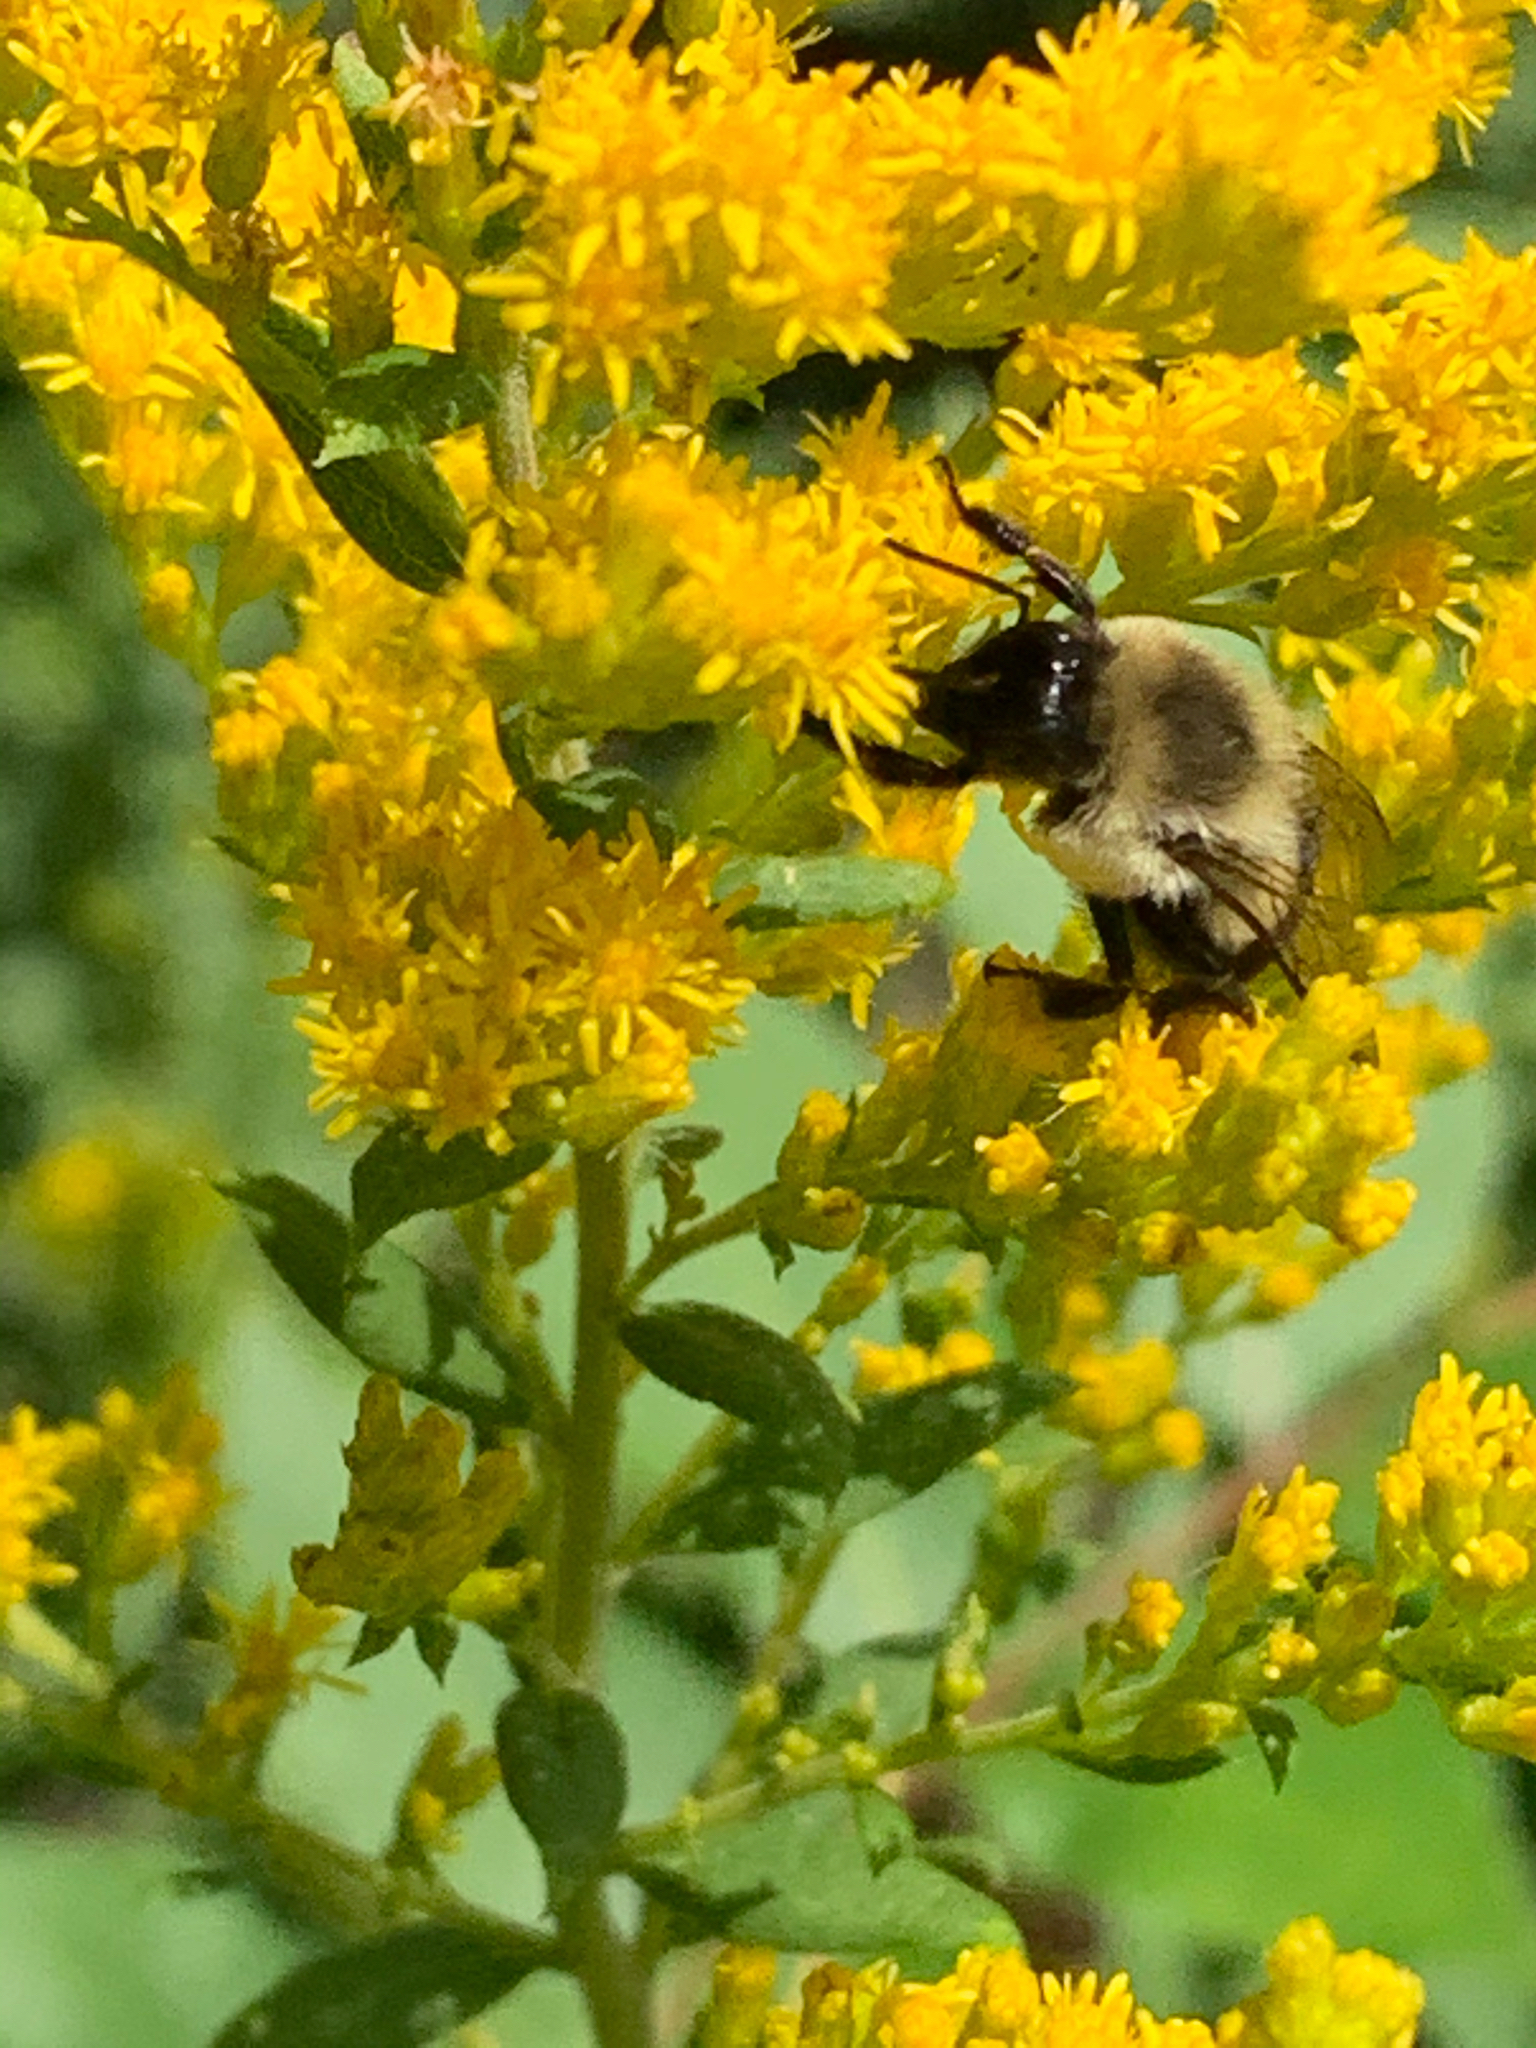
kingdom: Animalia
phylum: Arthropoda
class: Insecta
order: Hymenoptera
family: Apidae
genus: Bombus
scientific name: Bombus impatiens
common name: Common eastern bumble bee
